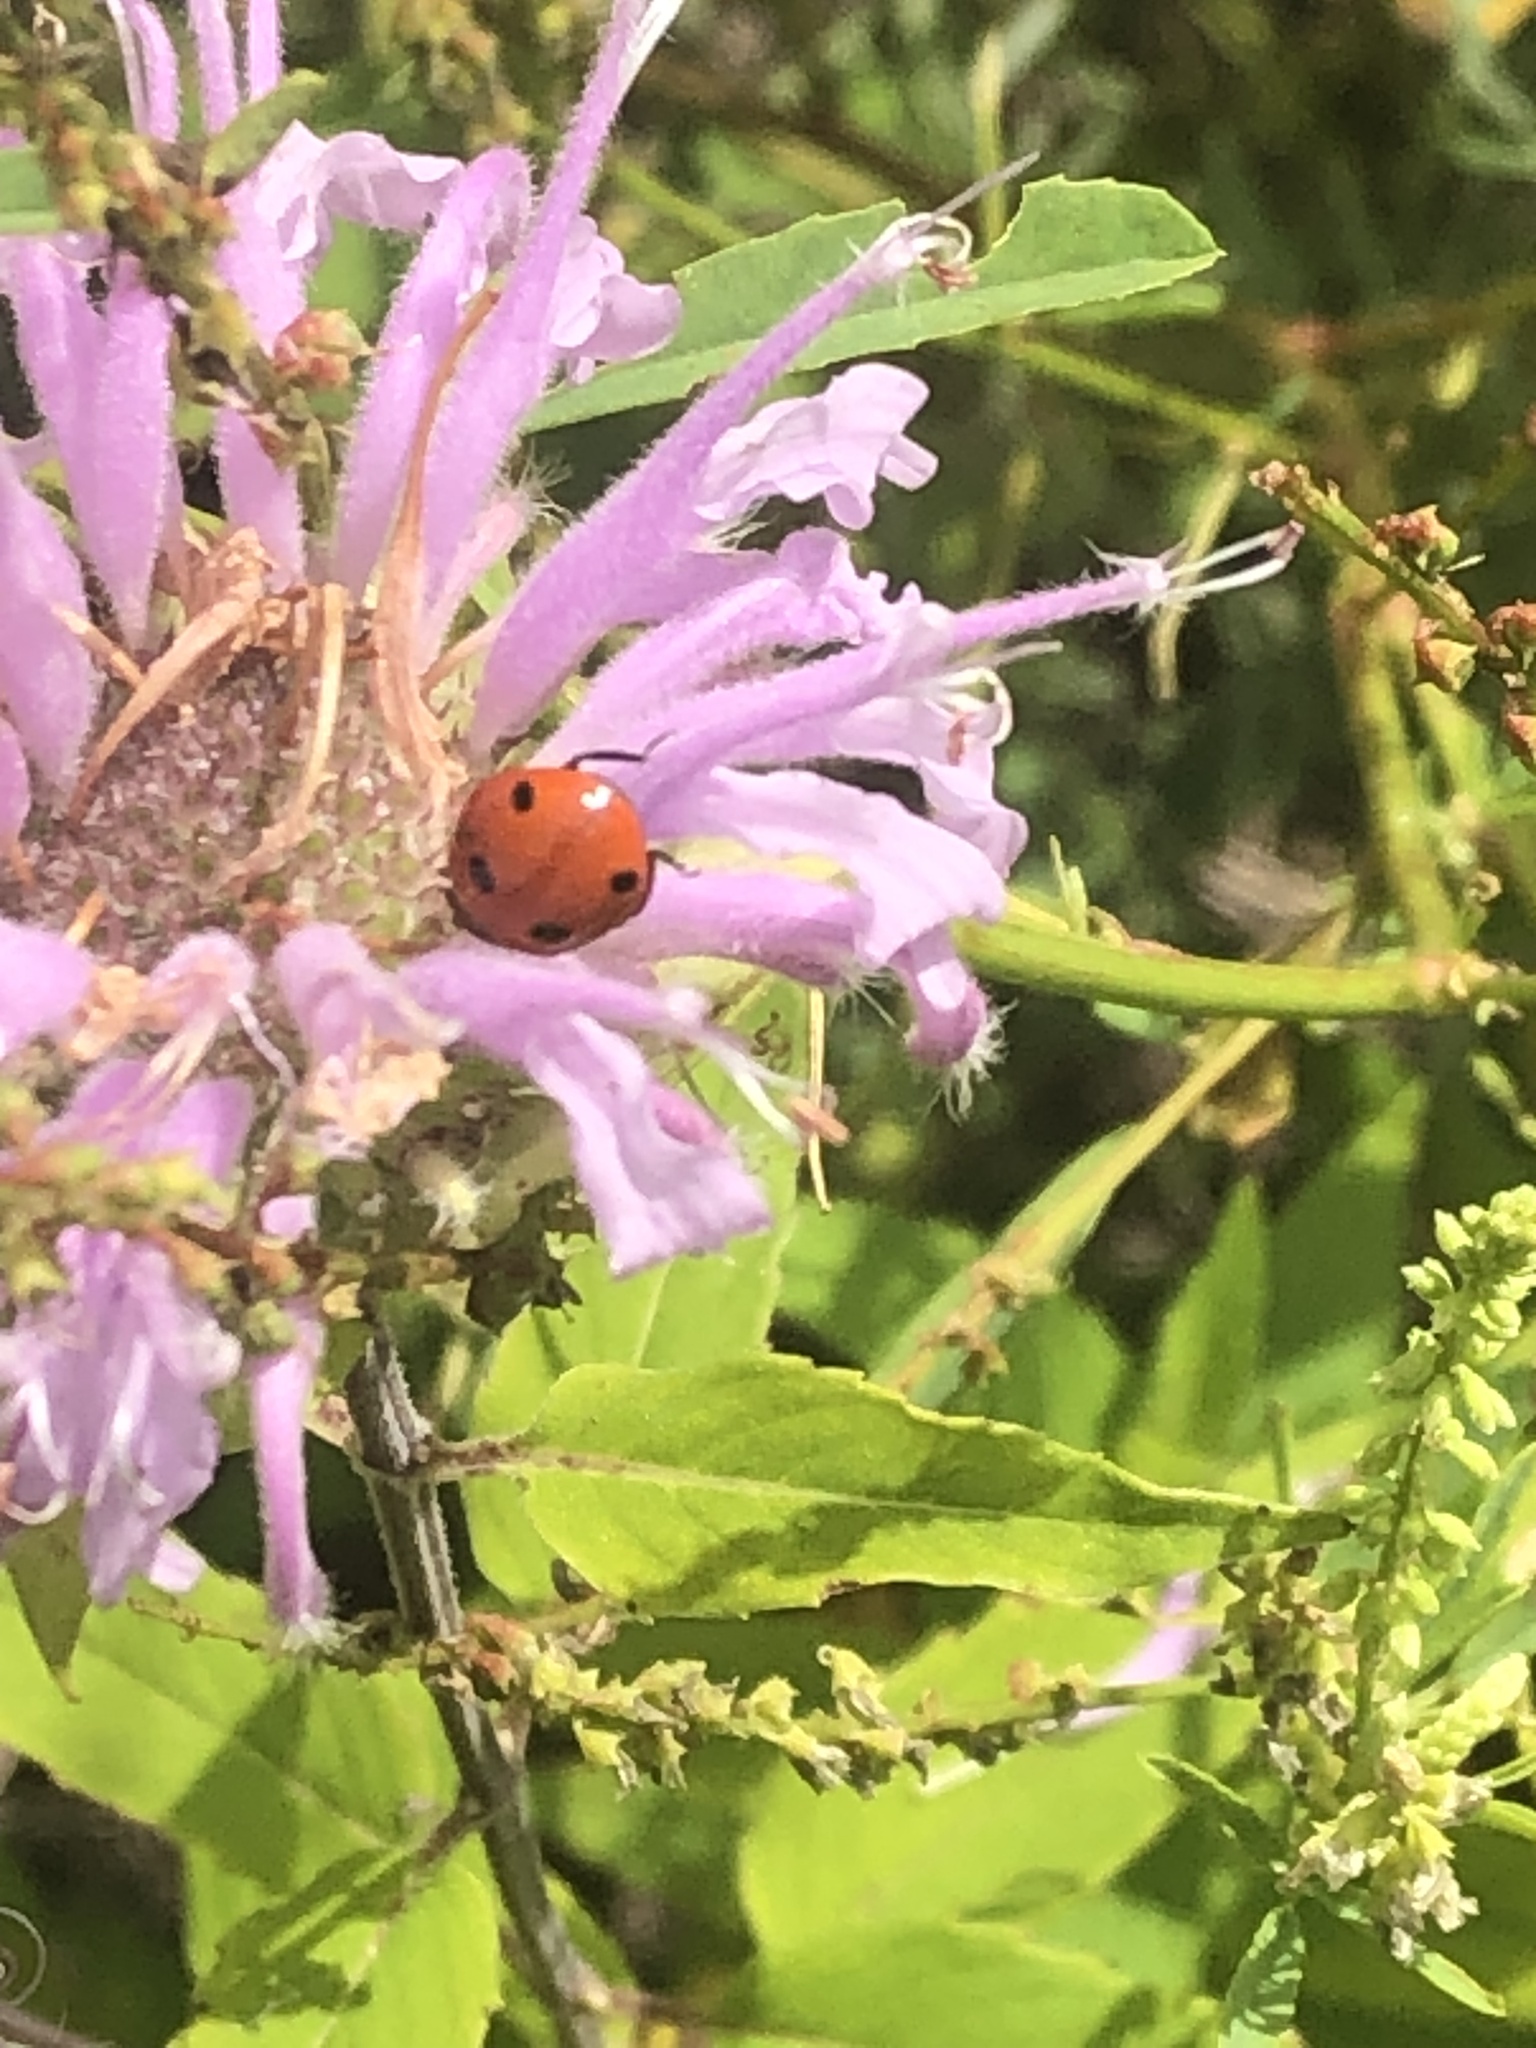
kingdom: Animalia
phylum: Arthropoda
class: Insecta
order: Coleoptera
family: Coccinellidae
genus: Coccinella
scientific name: Coccinella septempunctata
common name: Sevenspotted lady beetle
